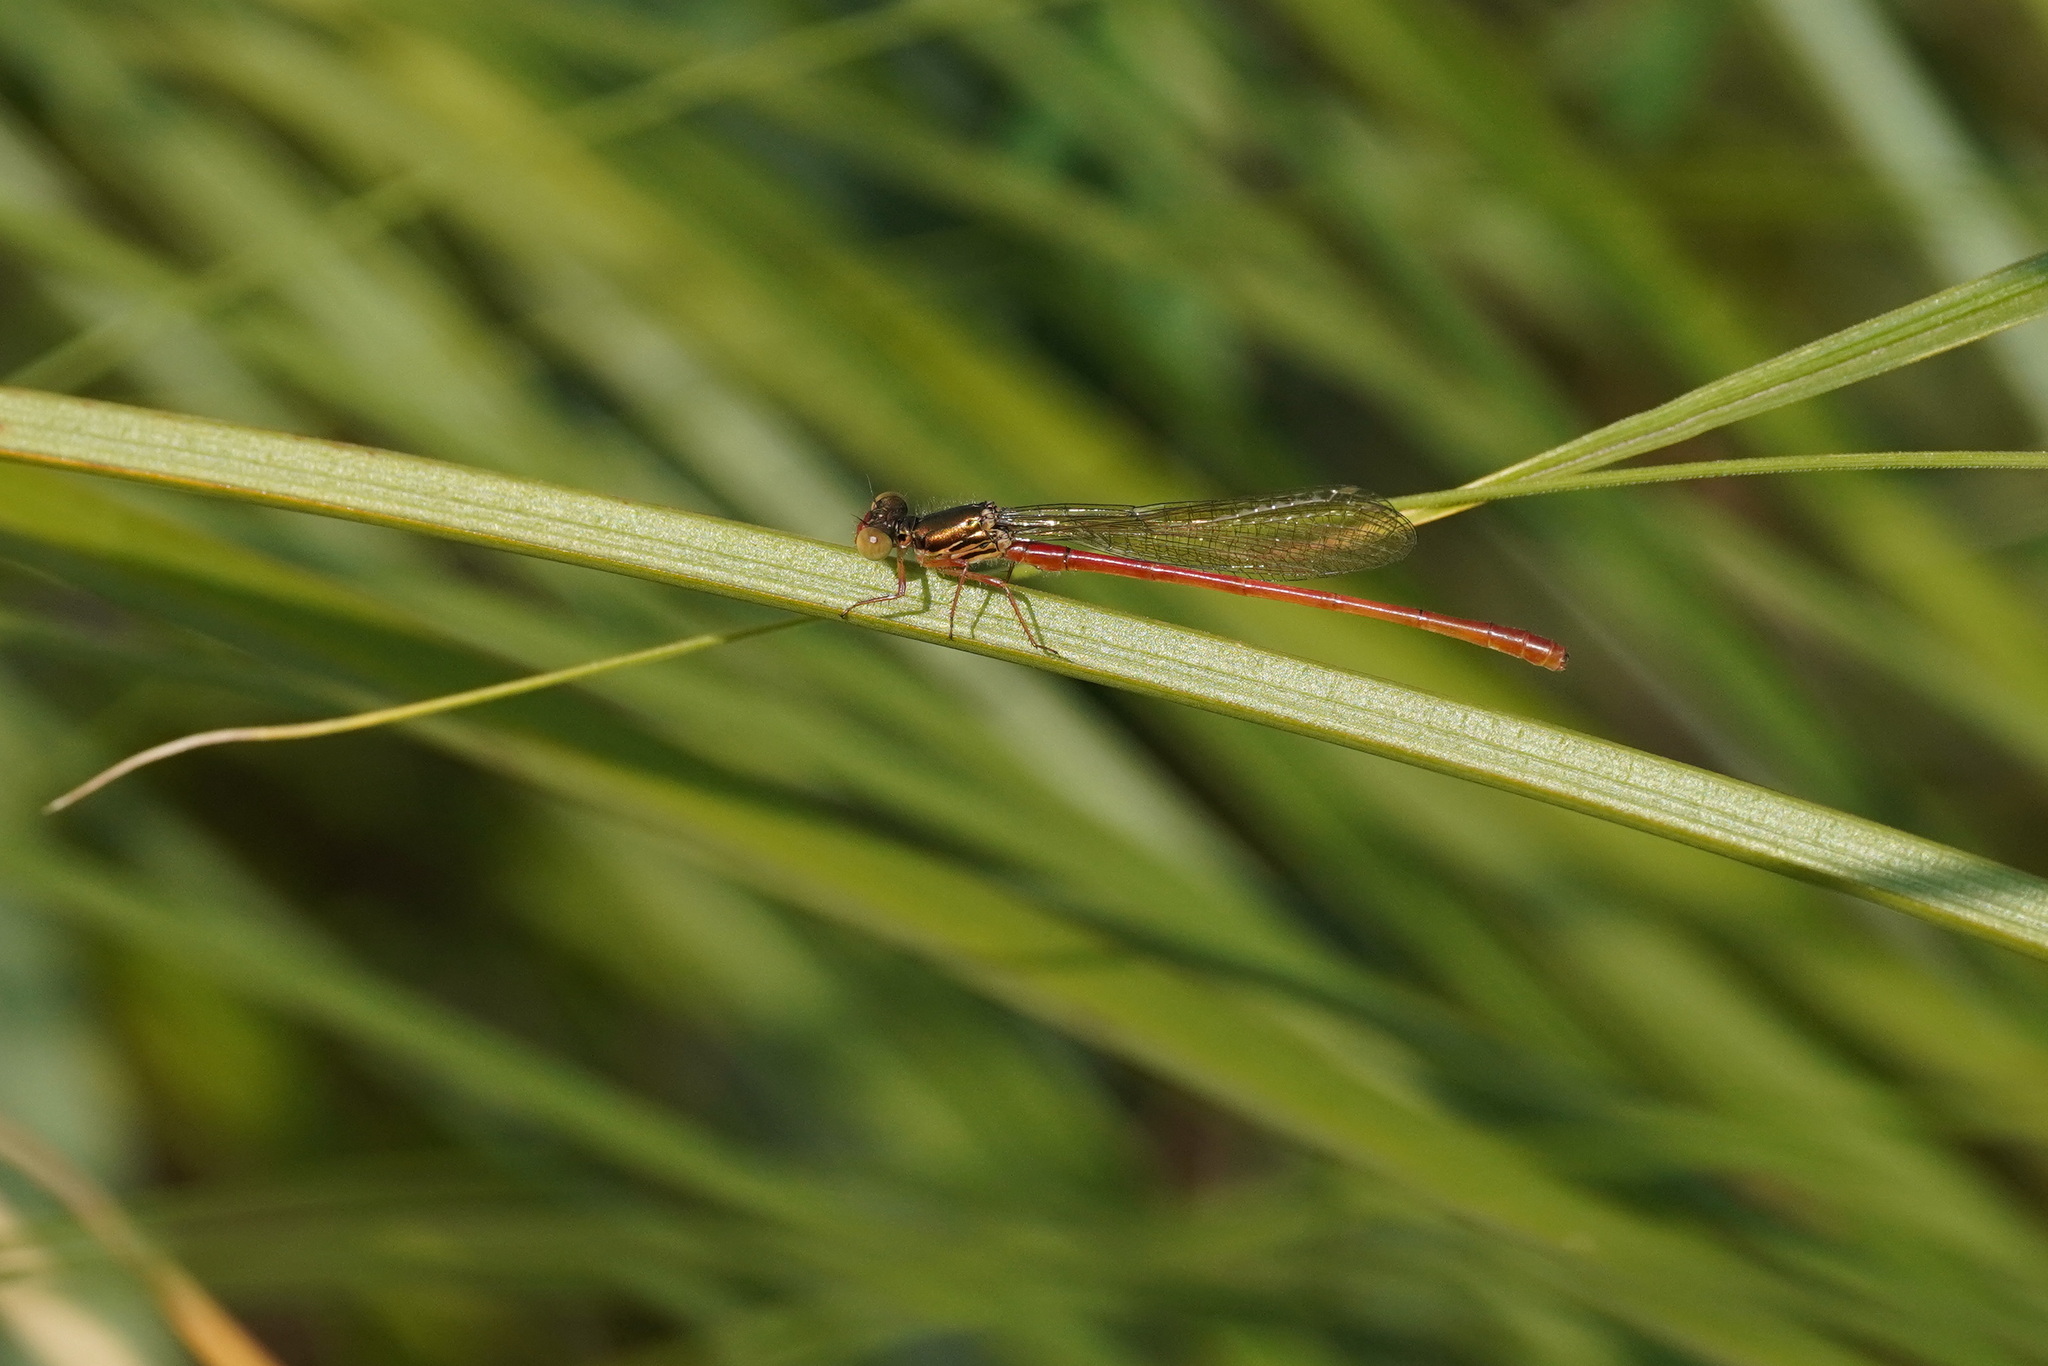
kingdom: Animalia
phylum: Arthropoda
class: Insecta
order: Odonata
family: Coenagrionidae
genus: Ceriagrion
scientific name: Ceriagrion tenellum
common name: Small red damselfly
